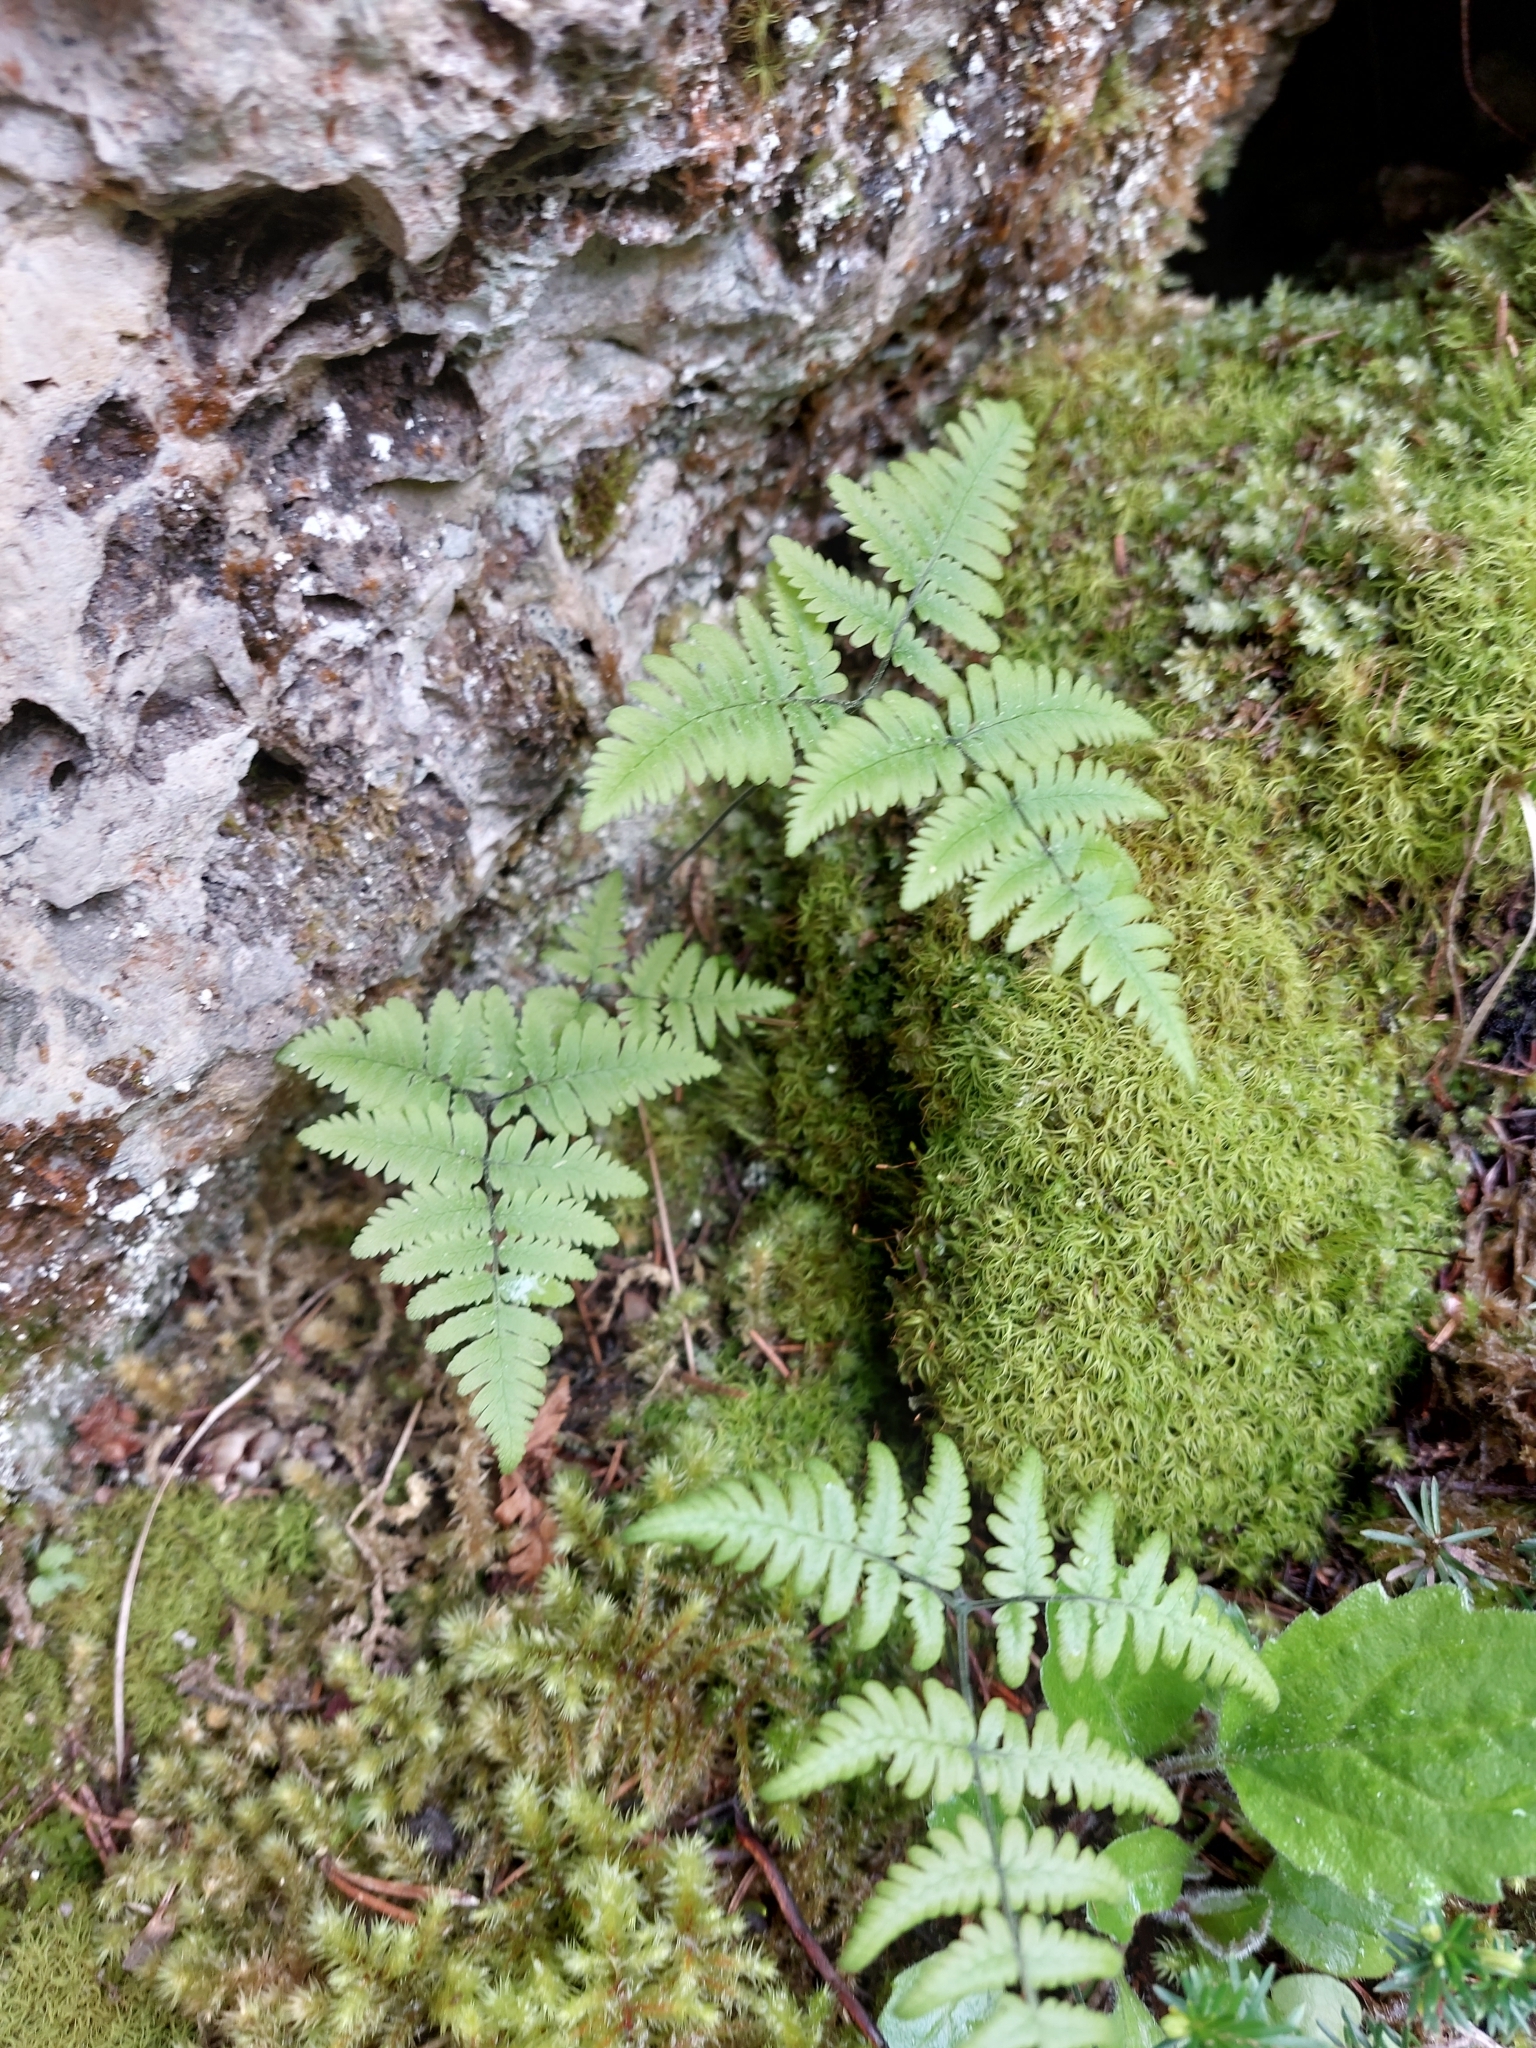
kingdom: Plantae
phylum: Tracheophyta
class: Polypodiopsida
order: Polypodiales
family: Cystopteridaceae
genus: Gymnocarpium
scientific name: Gymnocarpium robertianum
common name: Limestone fern
